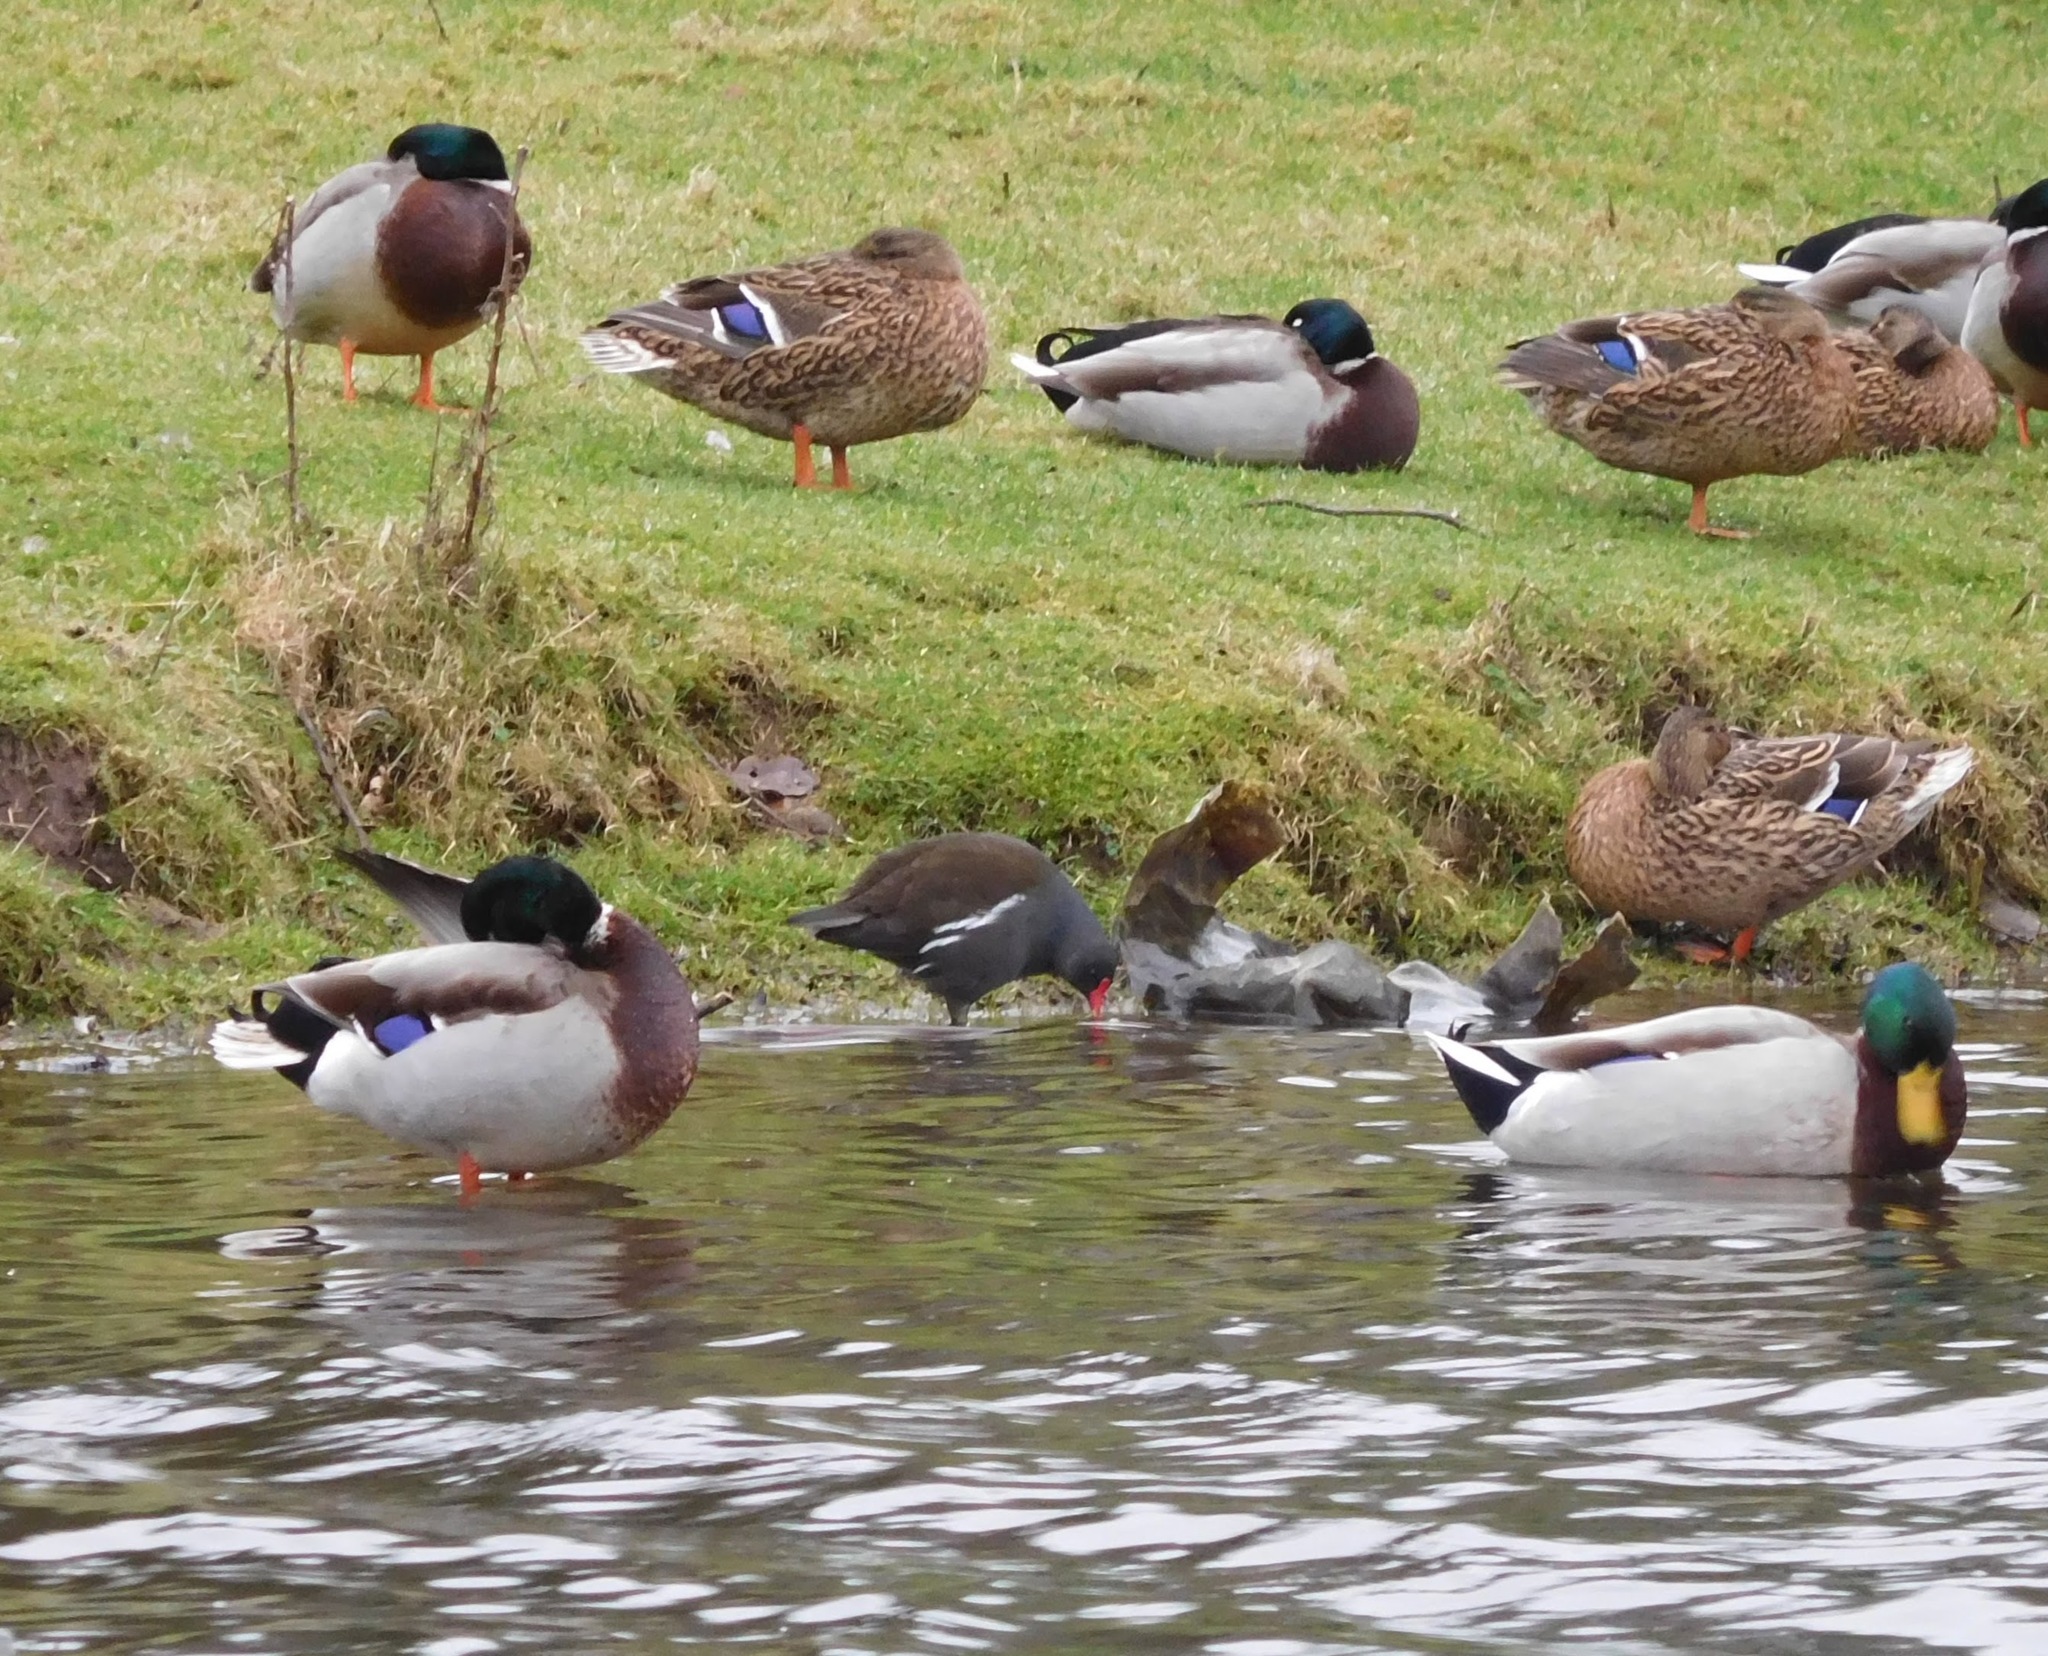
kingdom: Animalia
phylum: Chordata
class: Aves
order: Gruiformes
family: Rallidae
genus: Gallinula
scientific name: Gallinula chloropus
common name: Common moorhen
